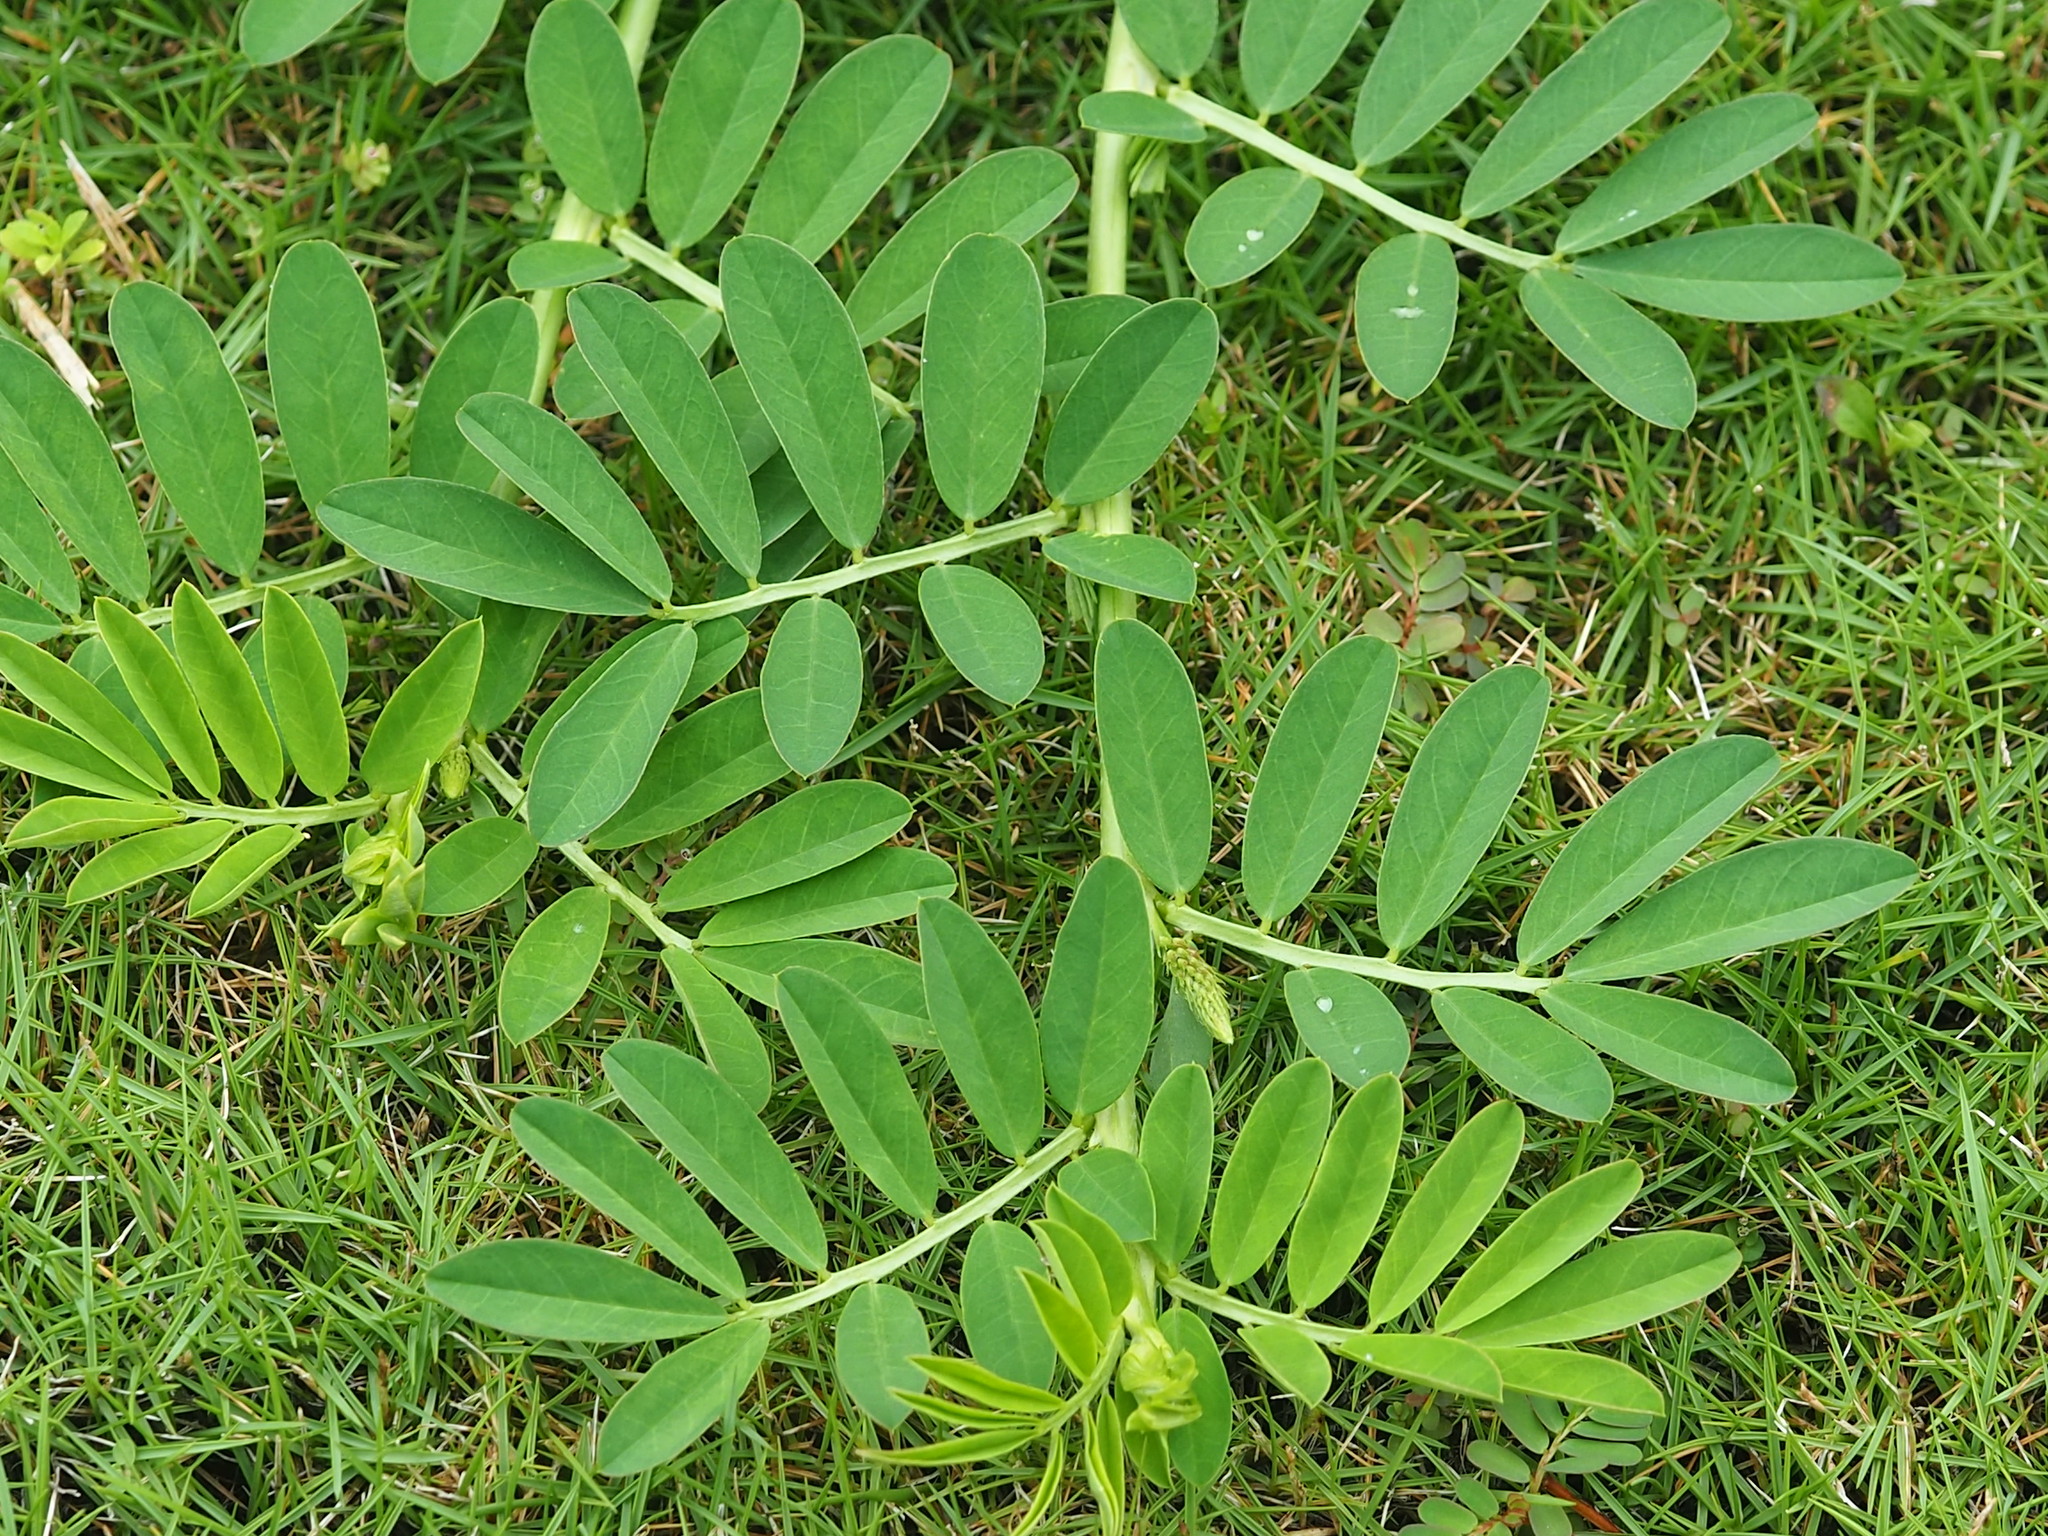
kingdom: Plantae
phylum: Tracheophyta
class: Magnoliopsida
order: Fabales
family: Fabaceae
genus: Indigofera
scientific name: Indigofera spicata
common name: Creeping indigo
